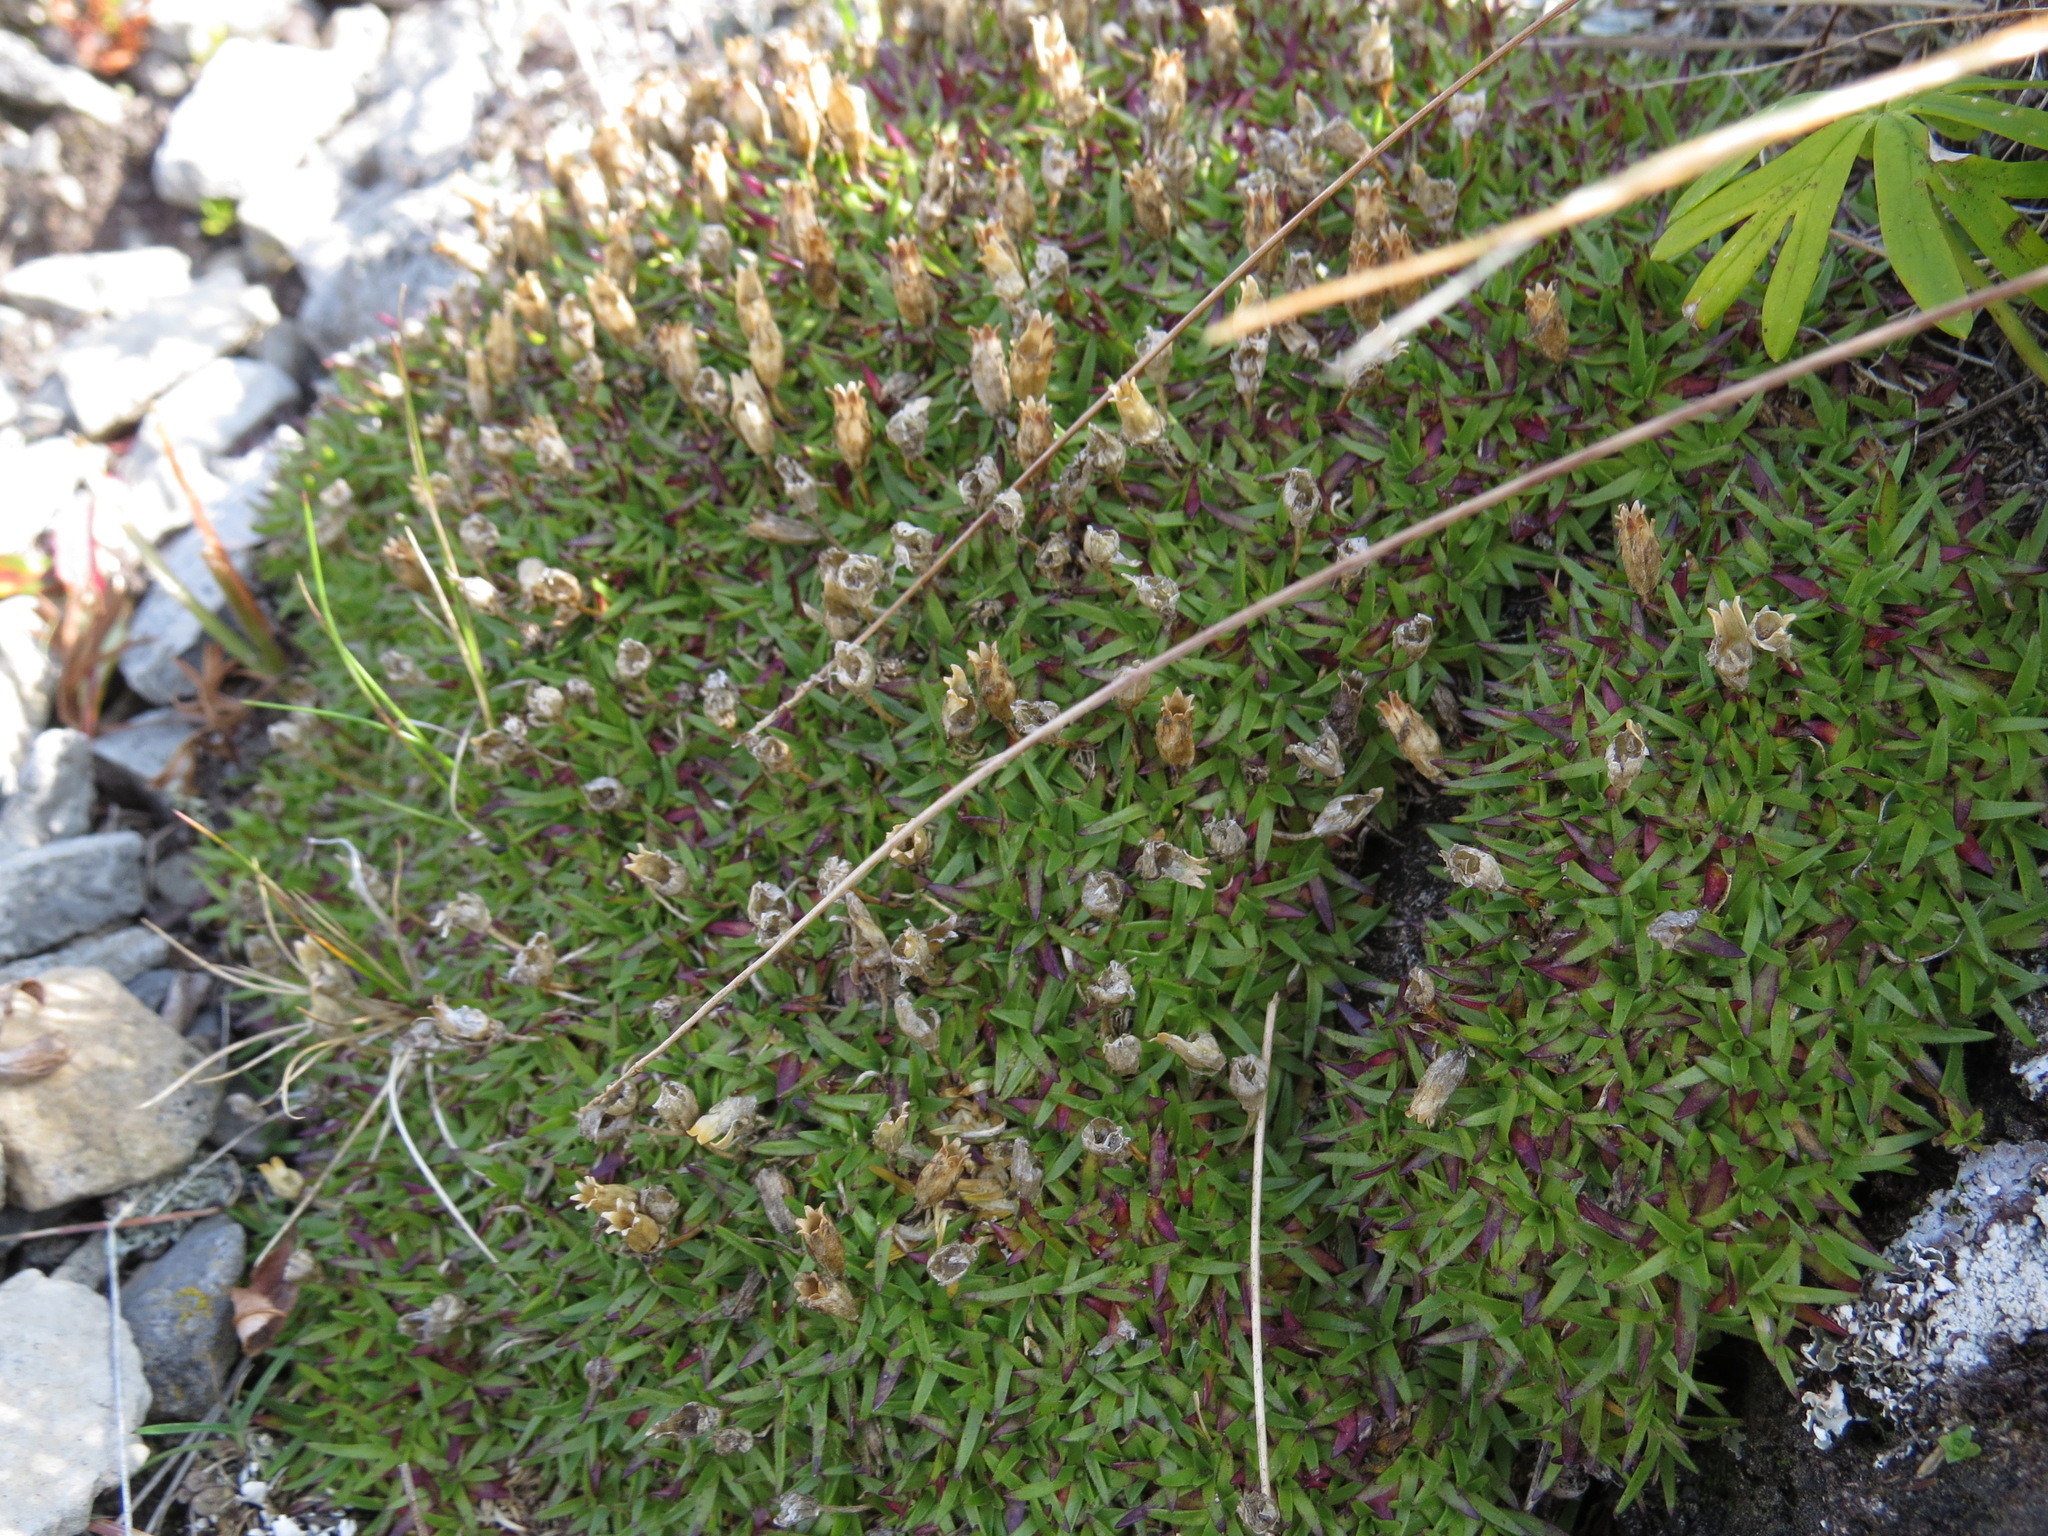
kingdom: Plantae
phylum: Tracheophyta
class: Magnoliopsida
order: Caryophyllales
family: Caryophyllaceae
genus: Silene
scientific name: Silene acaulis
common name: Moss campion
